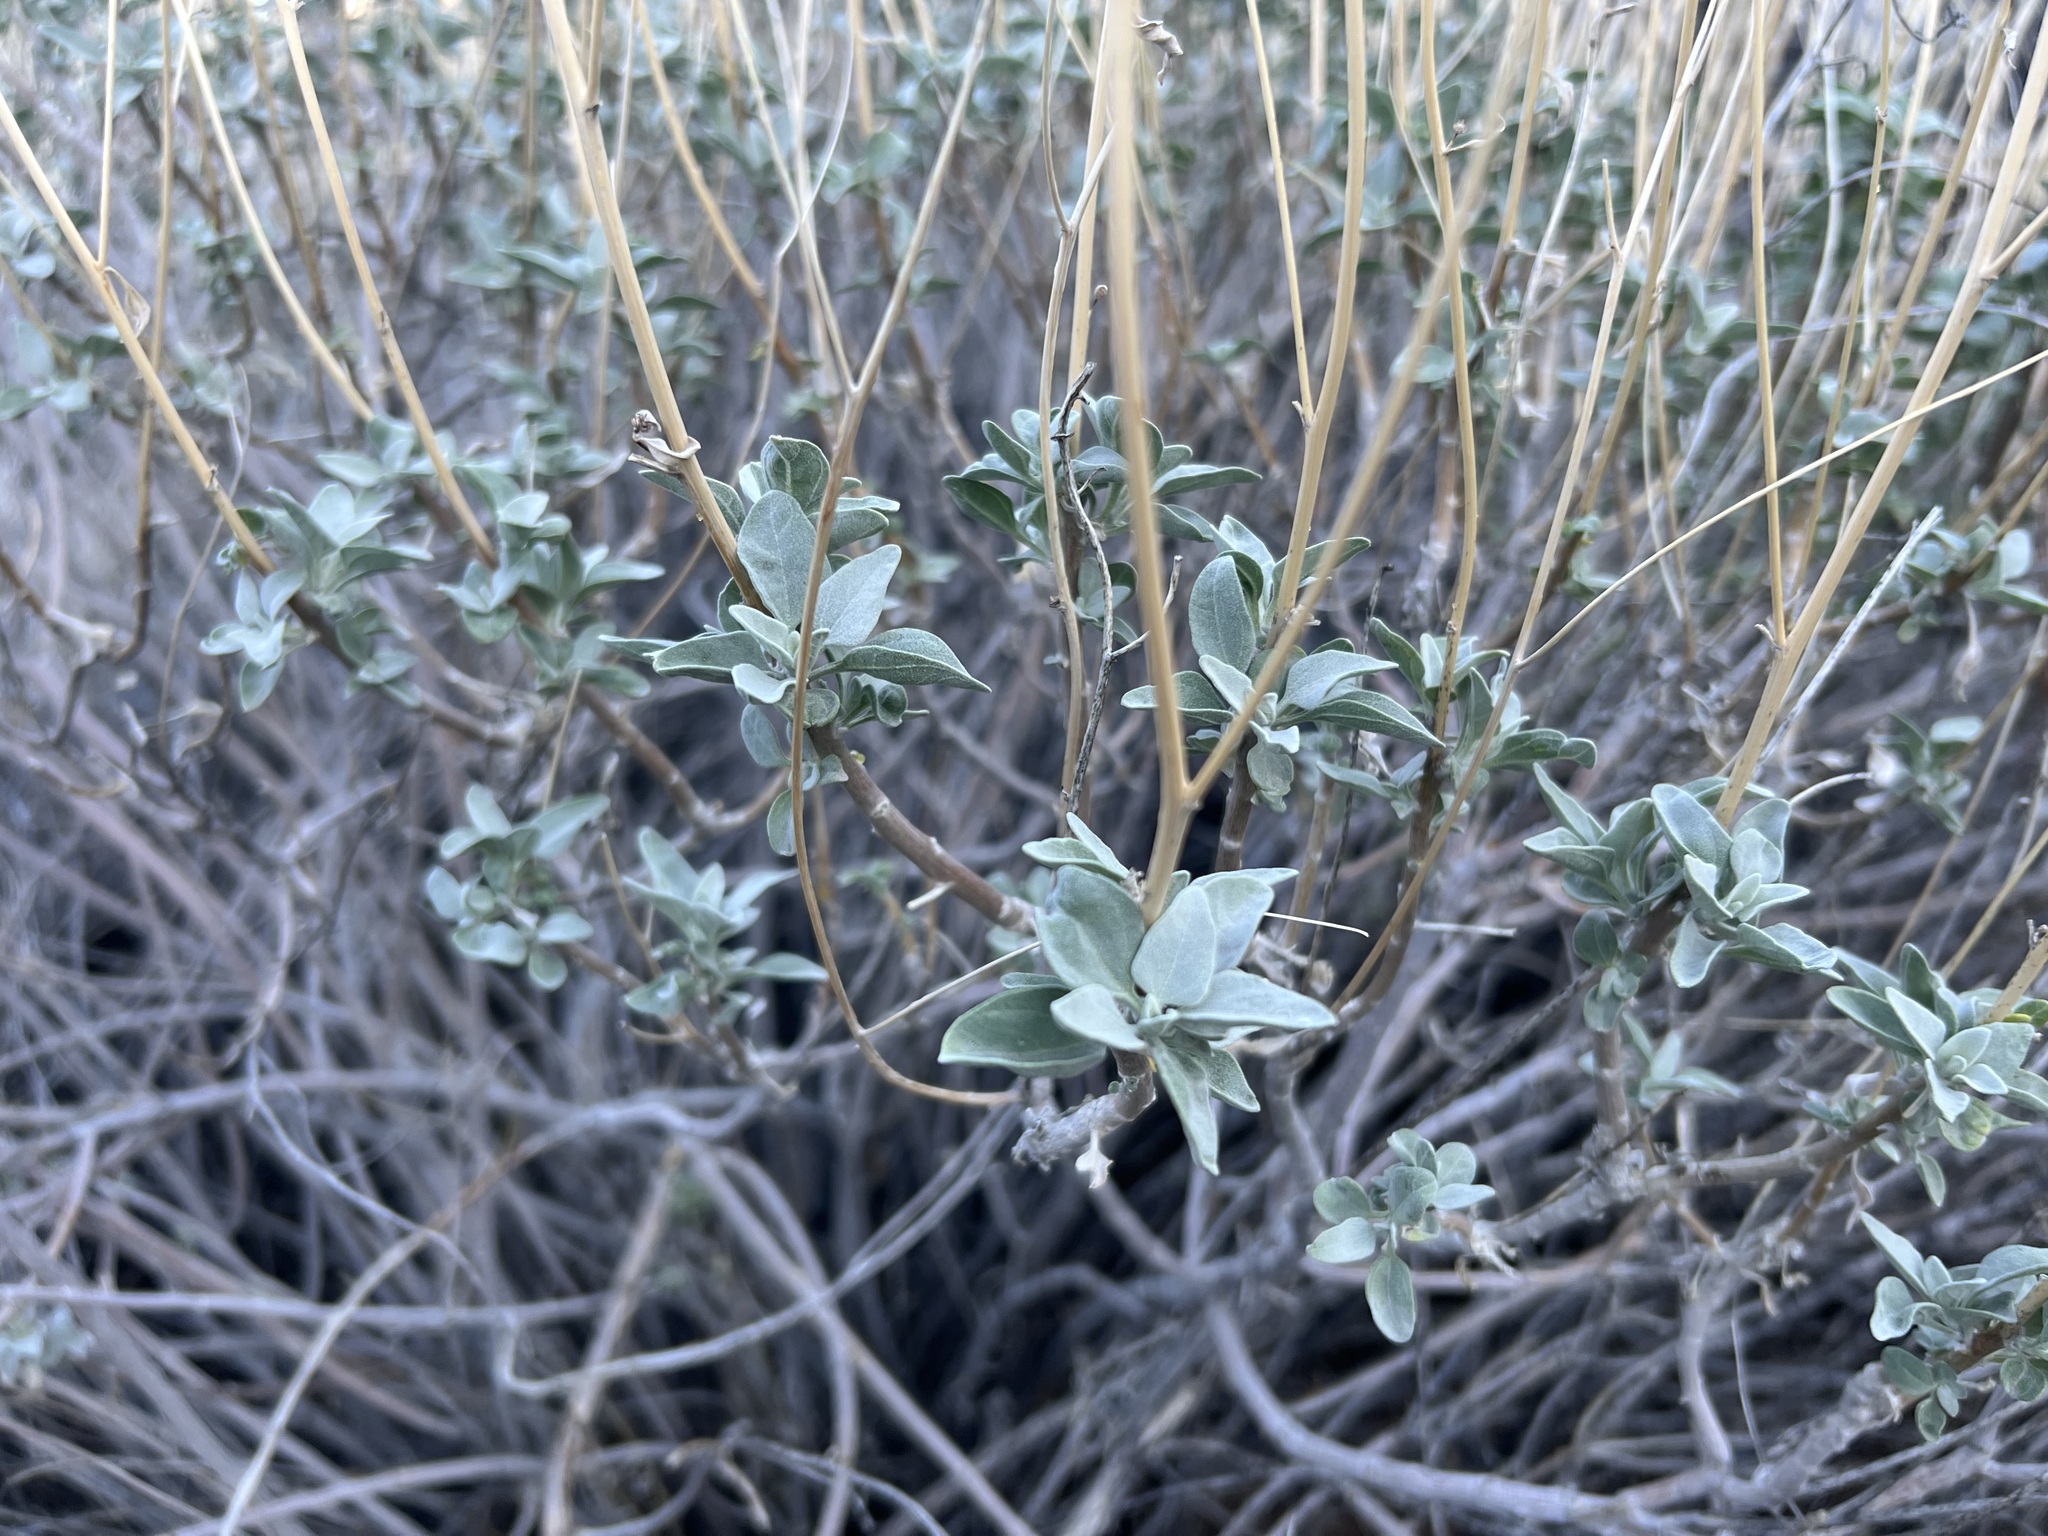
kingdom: Plantae
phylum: Tracheophyta
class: Magnoliopsida
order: Asterales
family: Asteraceae
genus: Encelia
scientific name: Encelia farinosa
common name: Brittlebush
